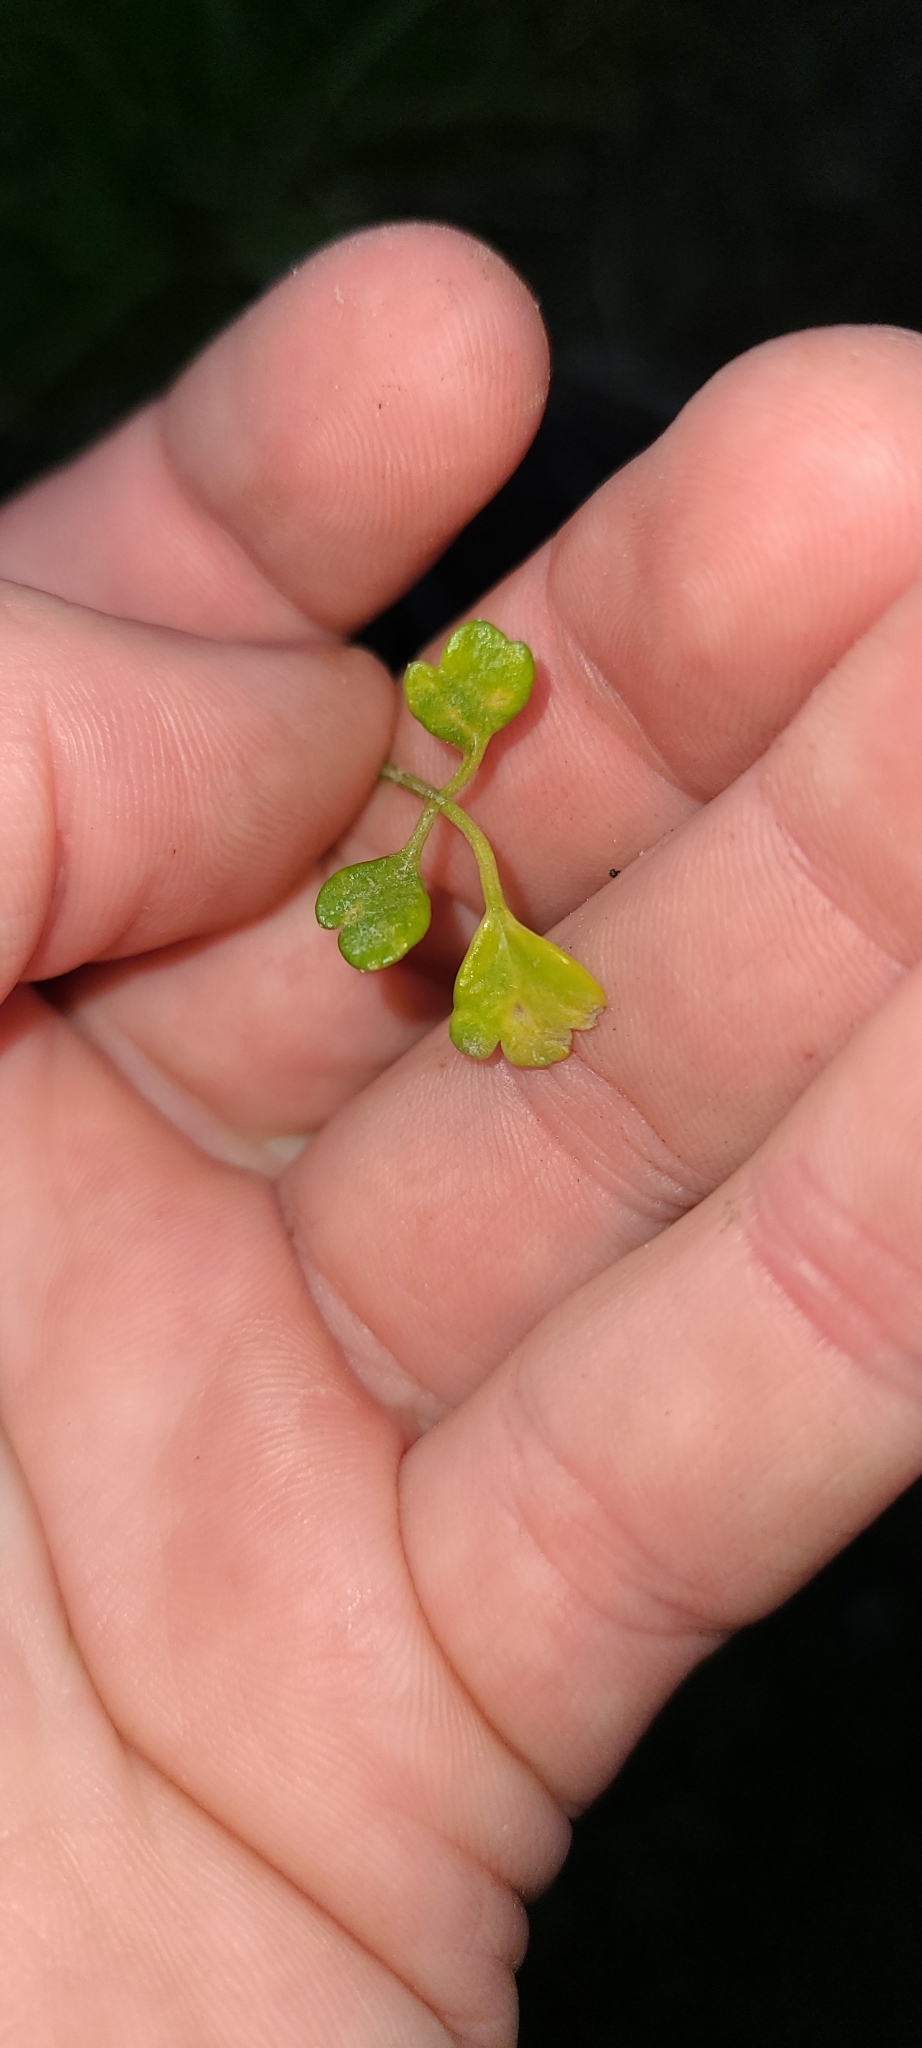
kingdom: Plantae
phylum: Tracheophyta
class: Magnoliopsida
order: Apiales
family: Apiaceae
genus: Apium
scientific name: Apium prostratum
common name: Prostrate marshwort
